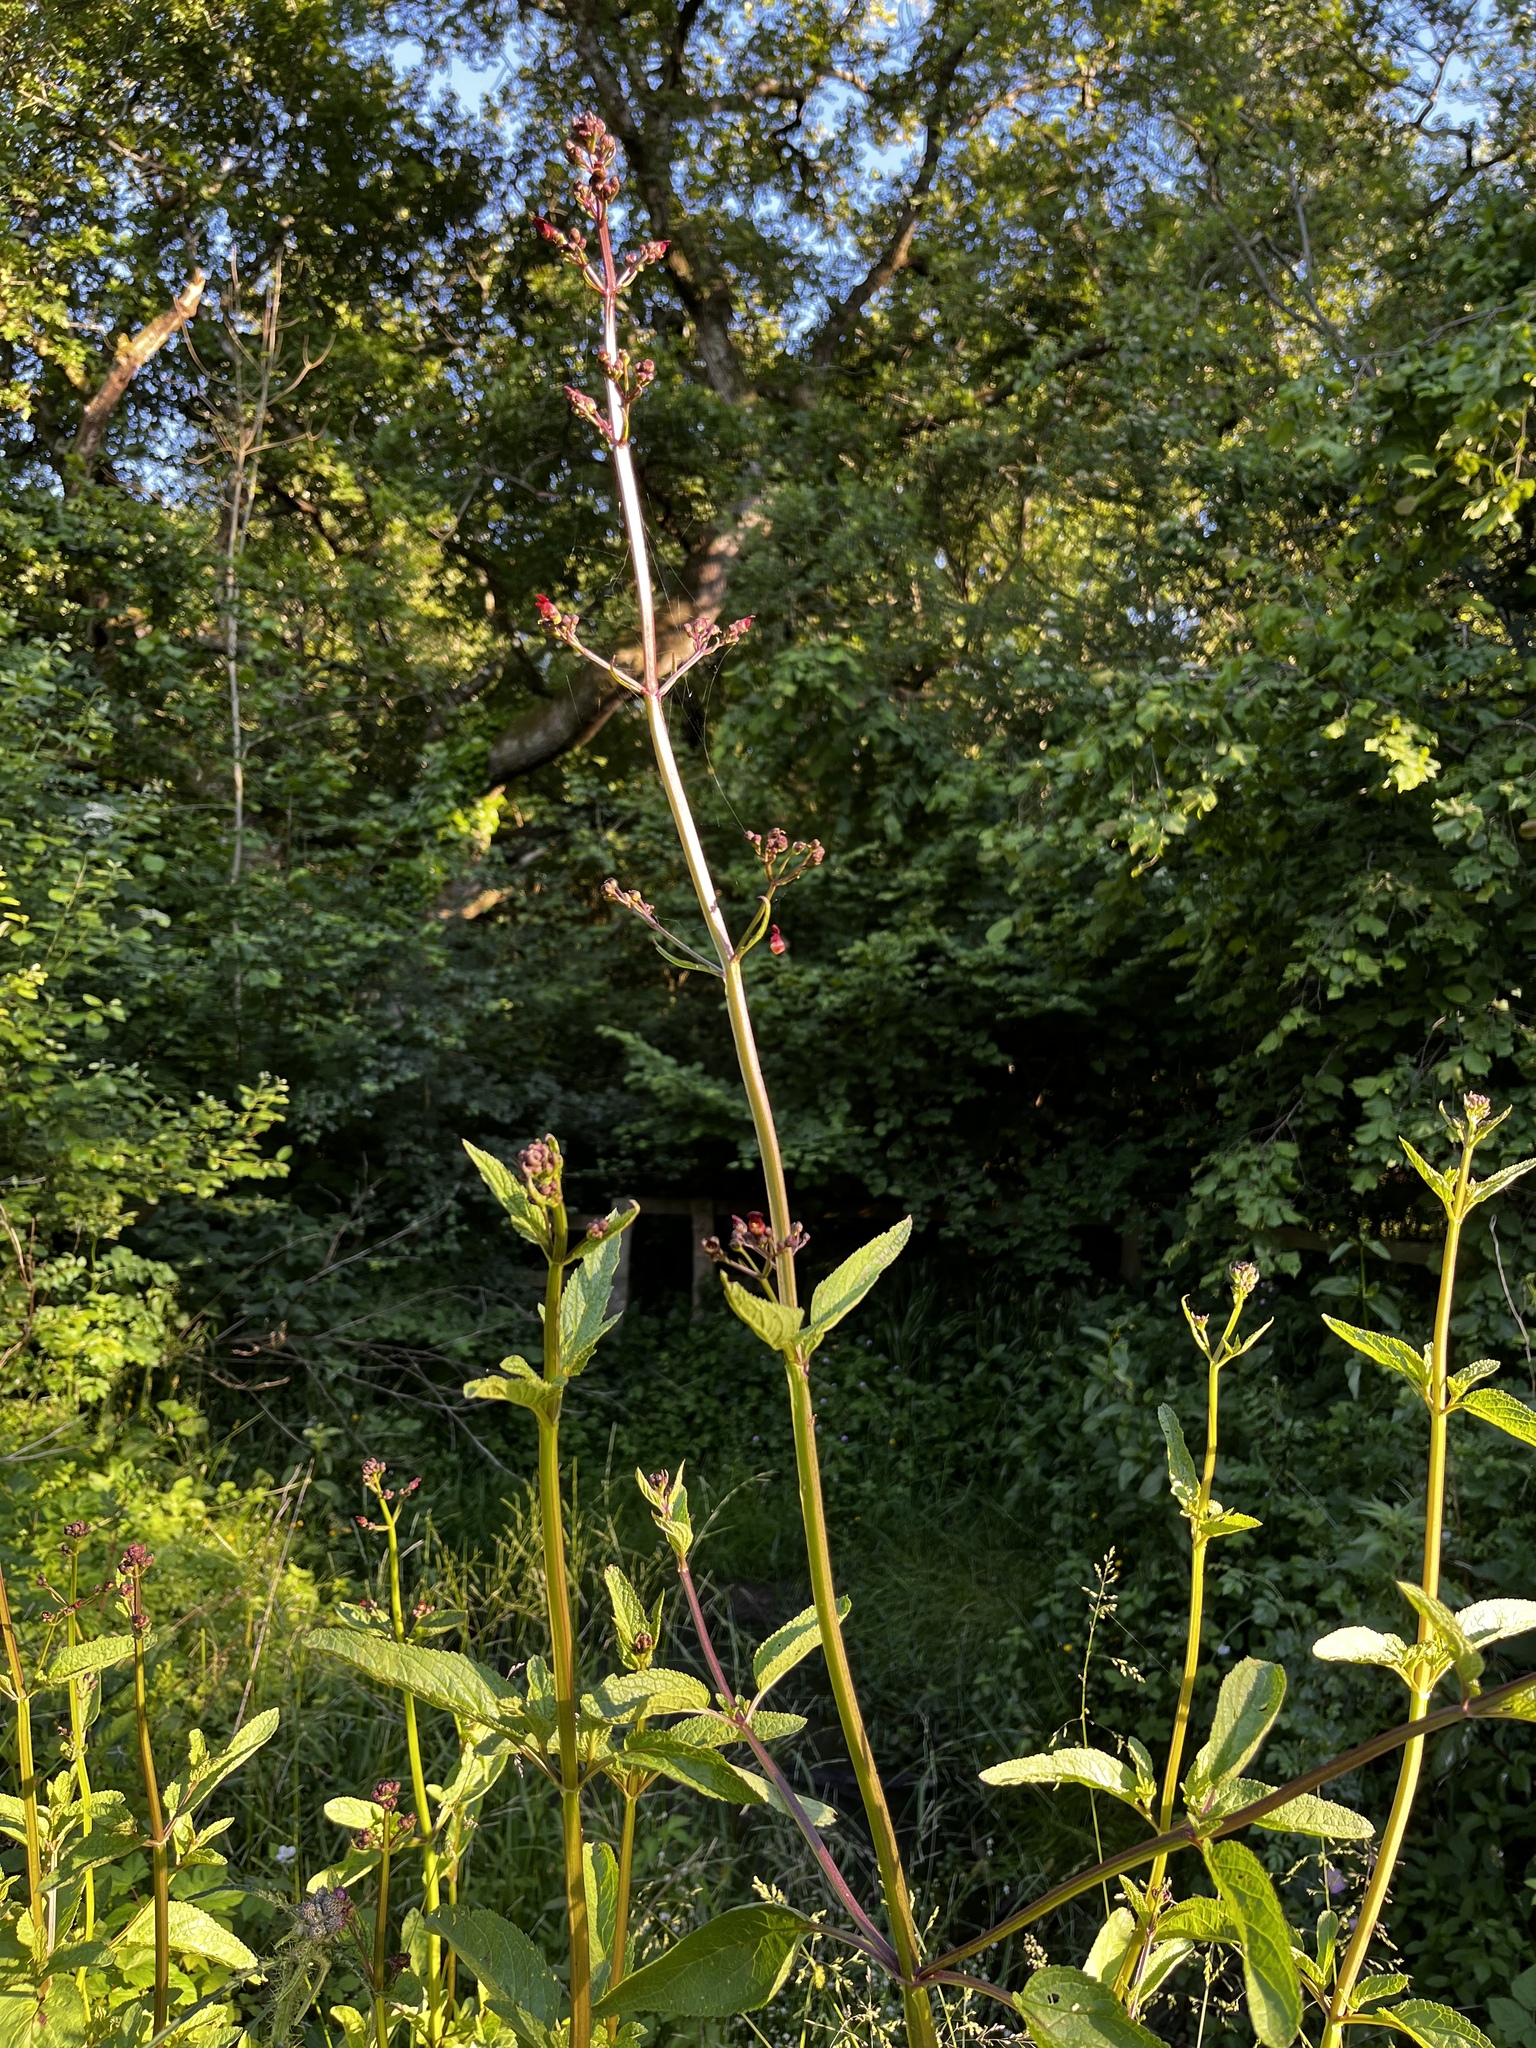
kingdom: Plantae
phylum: Tracheophyta
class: Magnoliopsida
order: Lamiales
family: Scrophulariaceae
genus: Scrophularia
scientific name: Scrophularia auriculata
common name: Water betony
